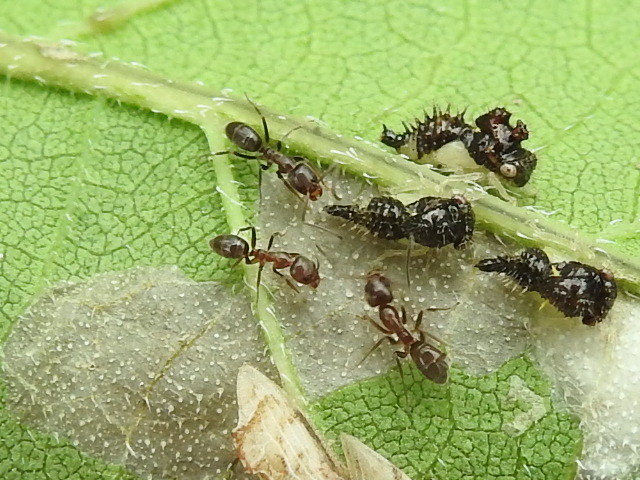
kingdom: Animalia
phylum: Arthropoda
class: Insecta
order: Hymenoptera
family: Formicidae
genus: Linepithema
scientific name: Linepithema humile
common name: Argentine ant
